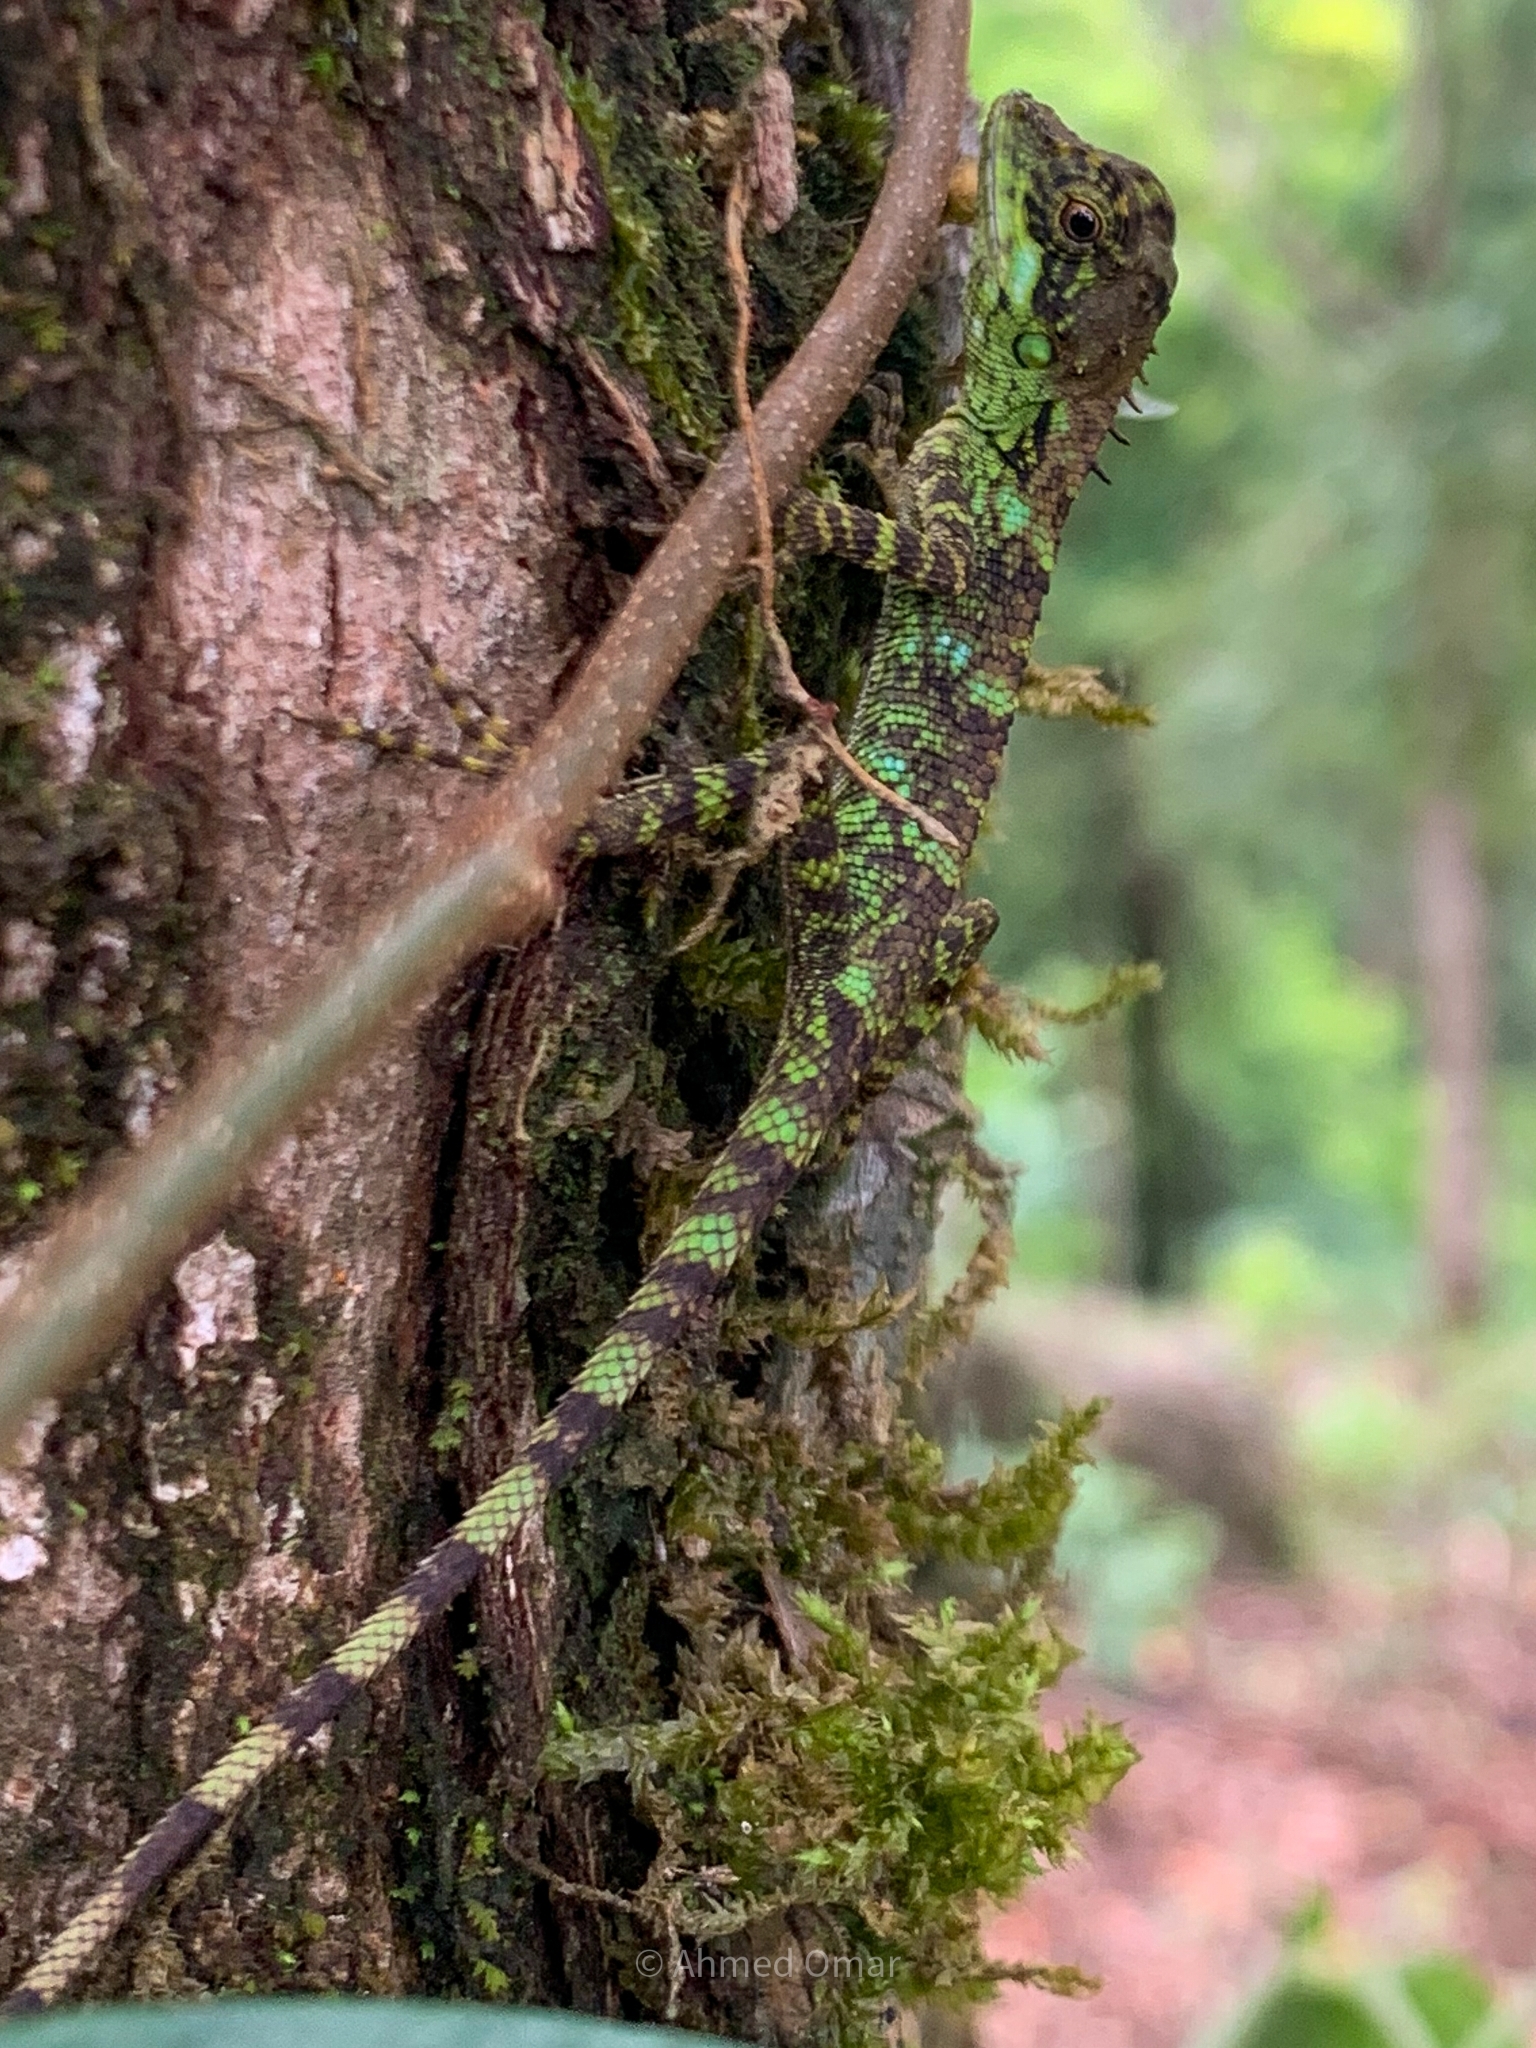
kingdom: Animalia
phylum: Chordata
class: Squamata
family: Agamidae
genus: Monilesaurus
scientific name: Monilesaurus montanus
